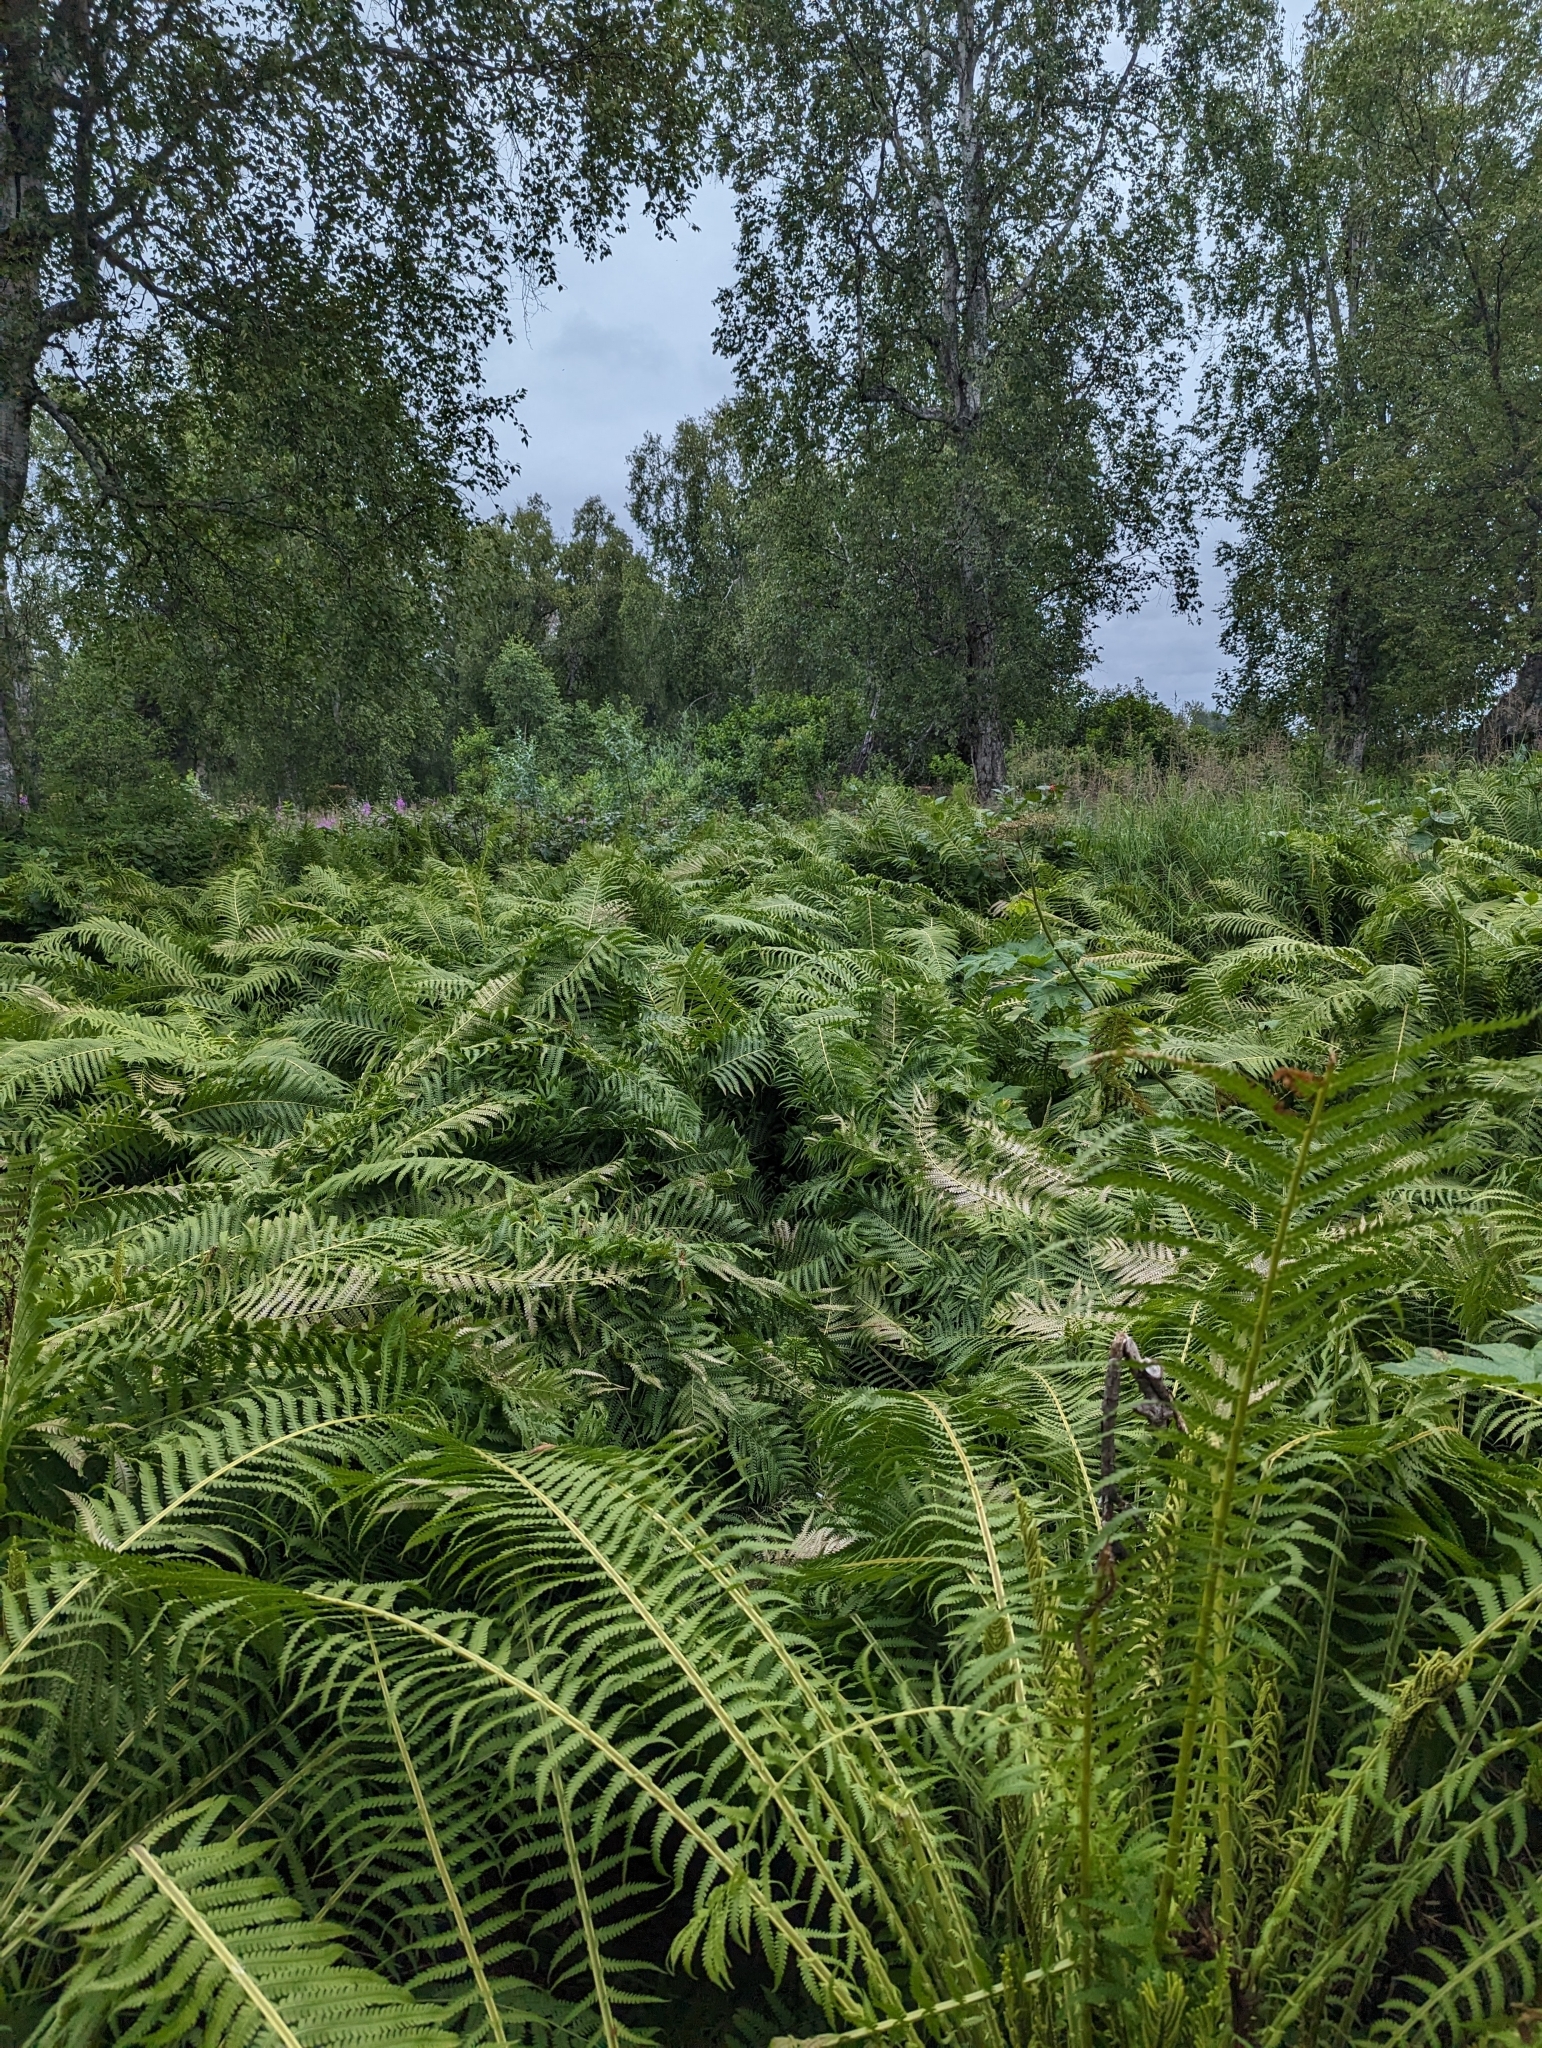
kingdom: Plantae
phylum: Tracheophyta
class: Polypodiopsida
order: Polypodiales
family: Onocleaceae
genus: Matteuccia
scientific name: Matteuccia struthiopteris
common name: Ostrich fern
